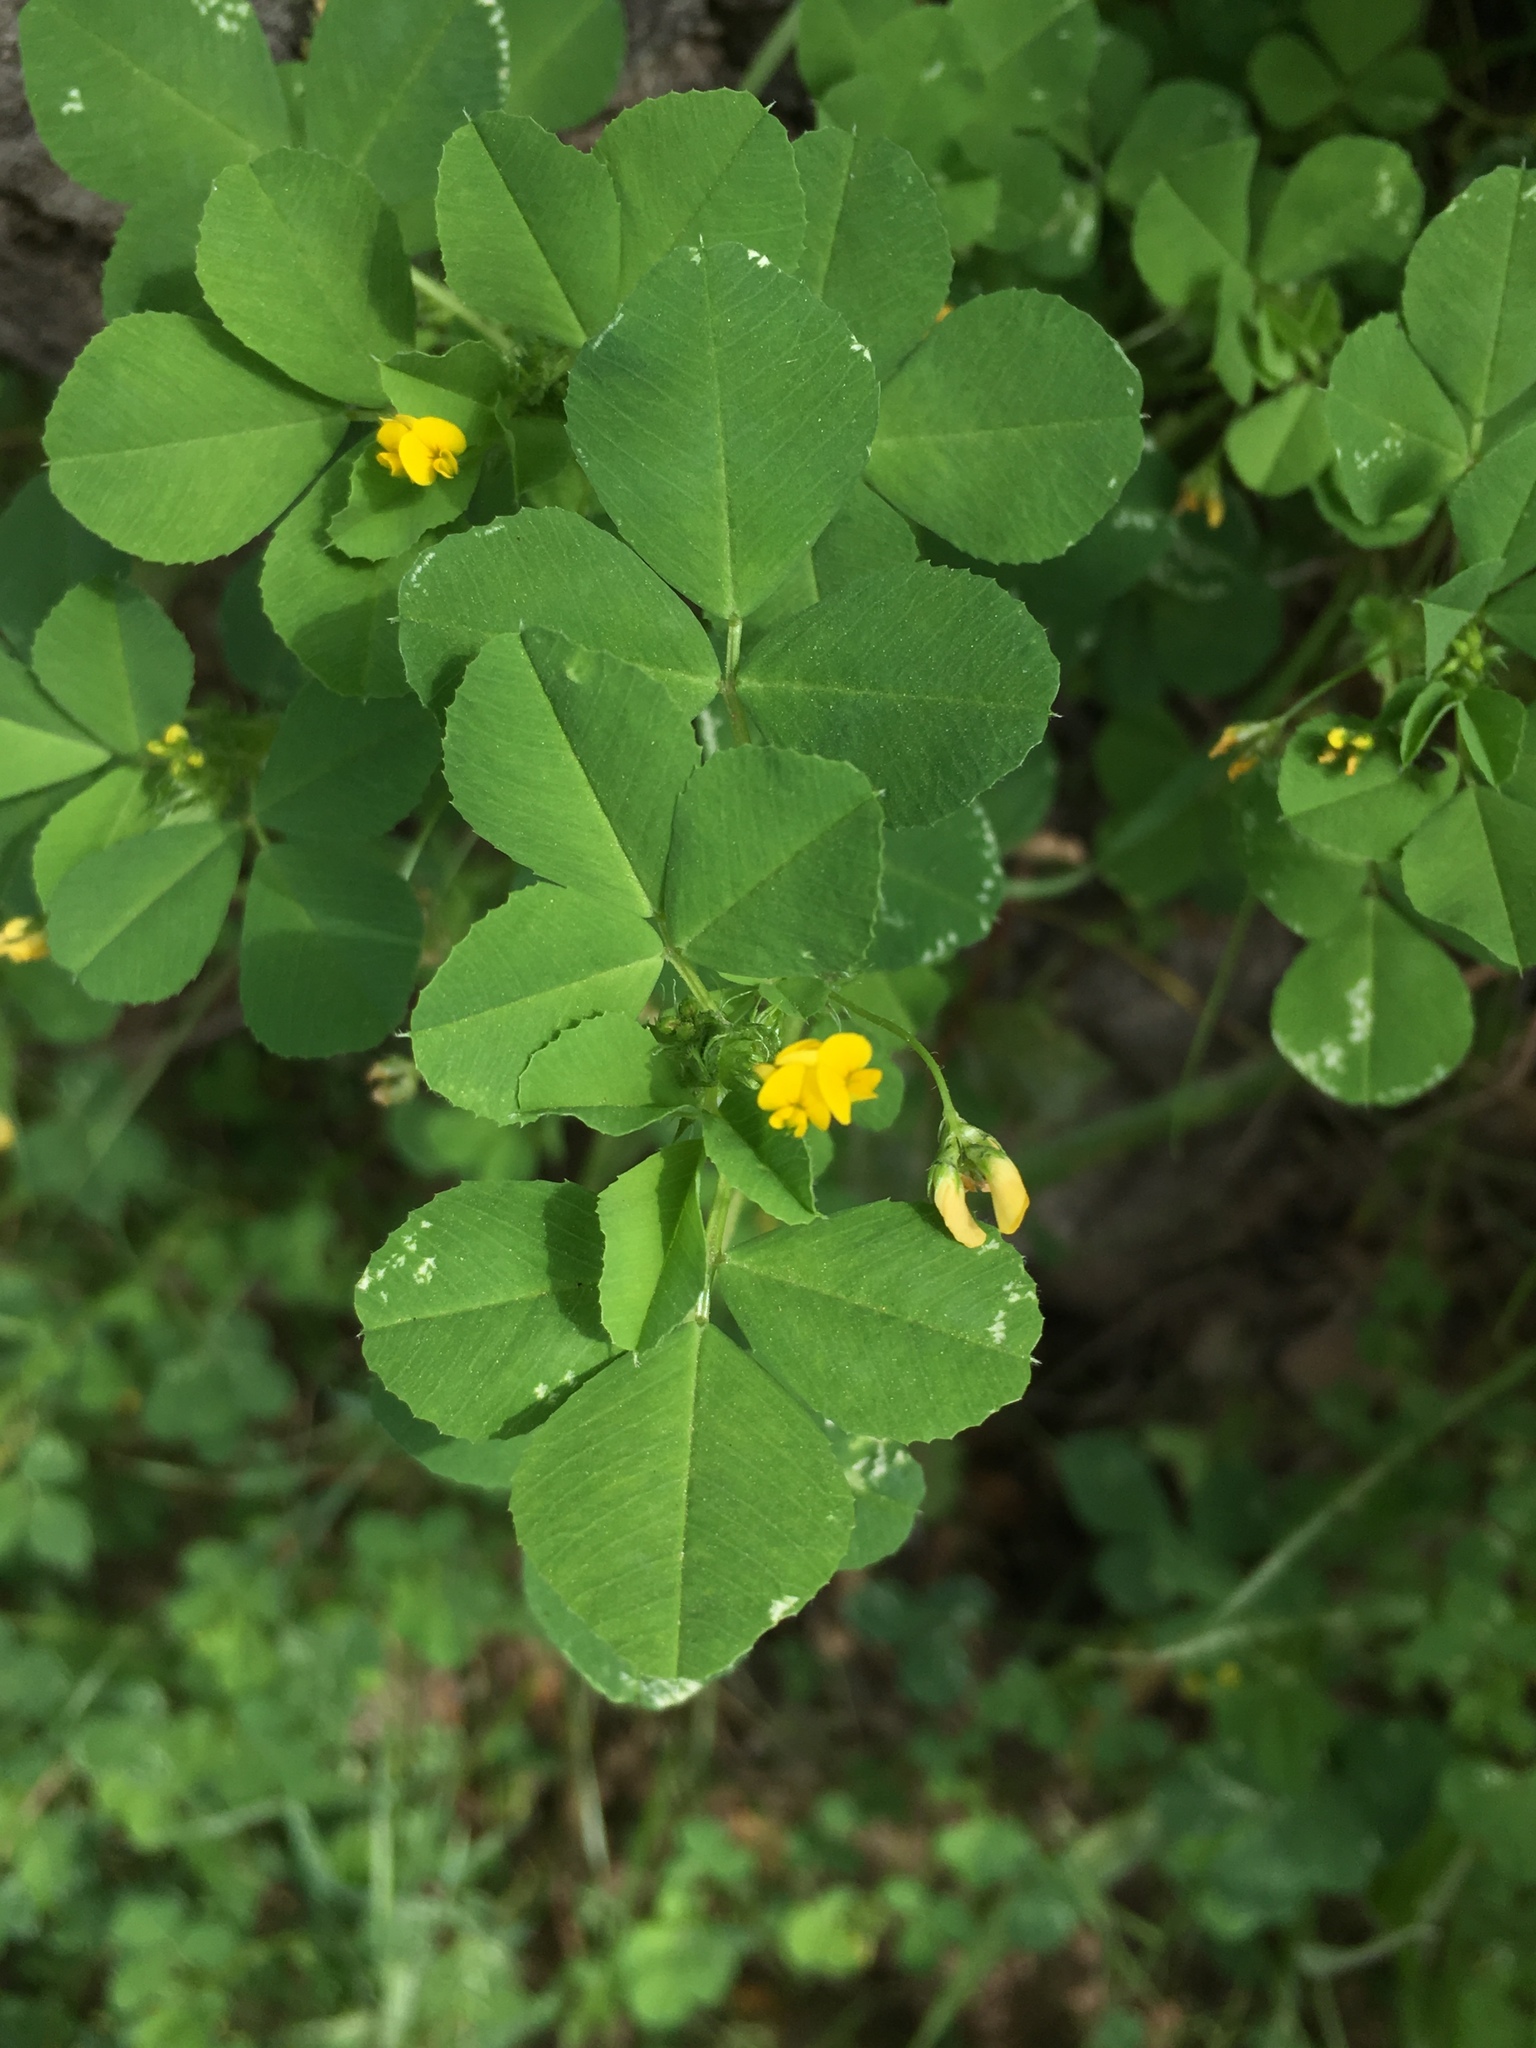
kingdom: Plantae
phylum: Tracheophyta
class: Magnoliopsida
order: Fabales
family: Fabaceae
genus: Medicago
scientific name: Medicago polymorpha
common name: Burclover
